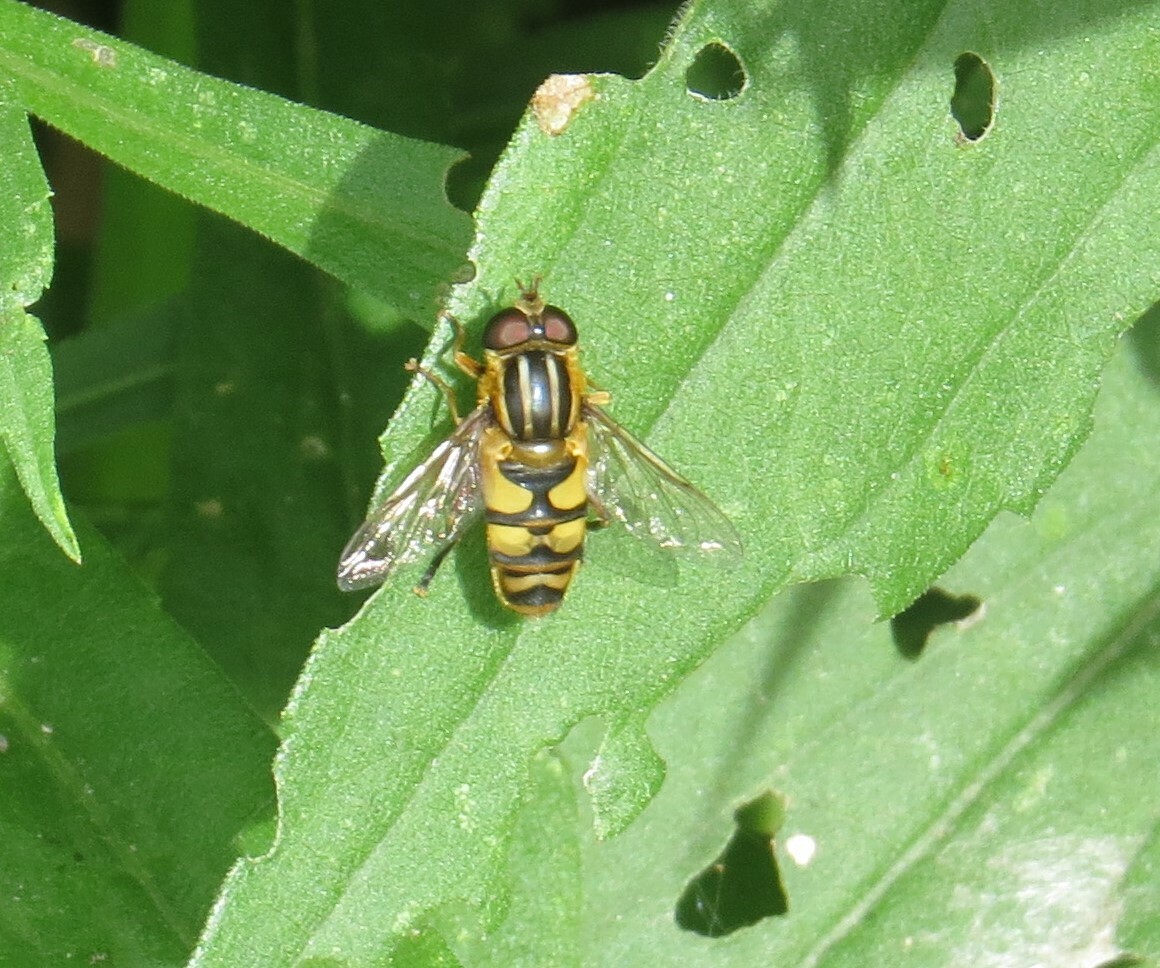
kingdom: Animalia
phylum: Arthropoda
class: Insecta
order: Diptera
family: Syrphidae
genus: Helophilus
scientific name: Helophilus fasciatus
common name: Narrow-headed marsh fly
